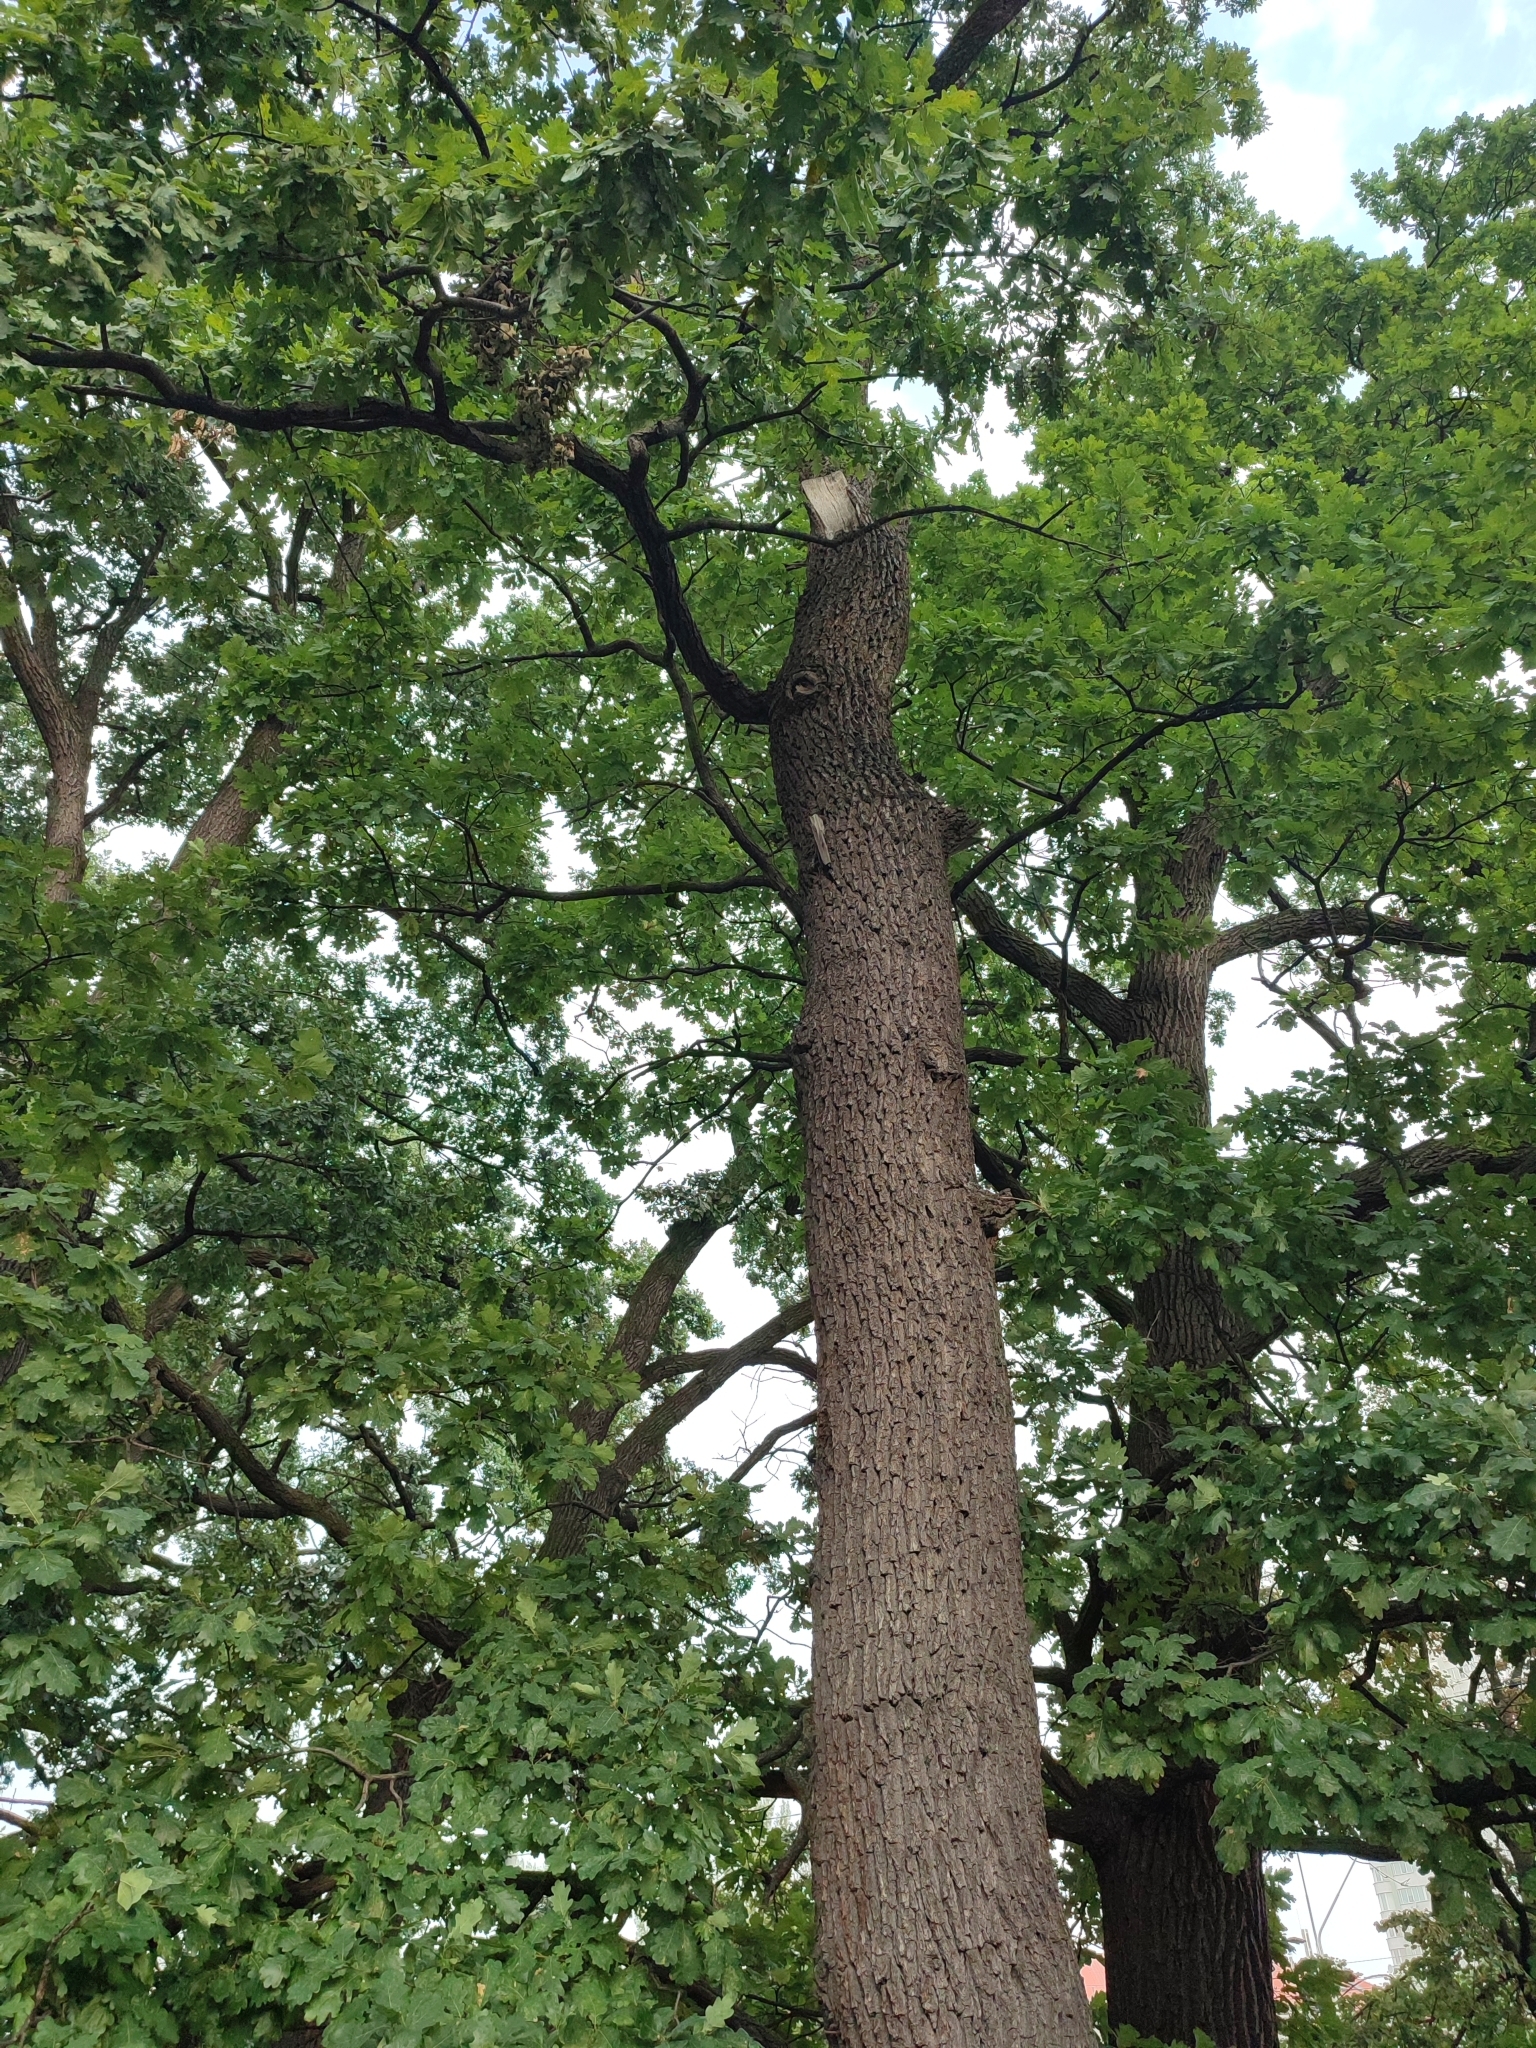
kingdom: Plantae
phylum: Tracheophyta
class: Magnoliopsida
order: Fagales
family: Fagaceae
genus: Quercus
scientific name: Quercus robur
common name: Pedunculate oak
